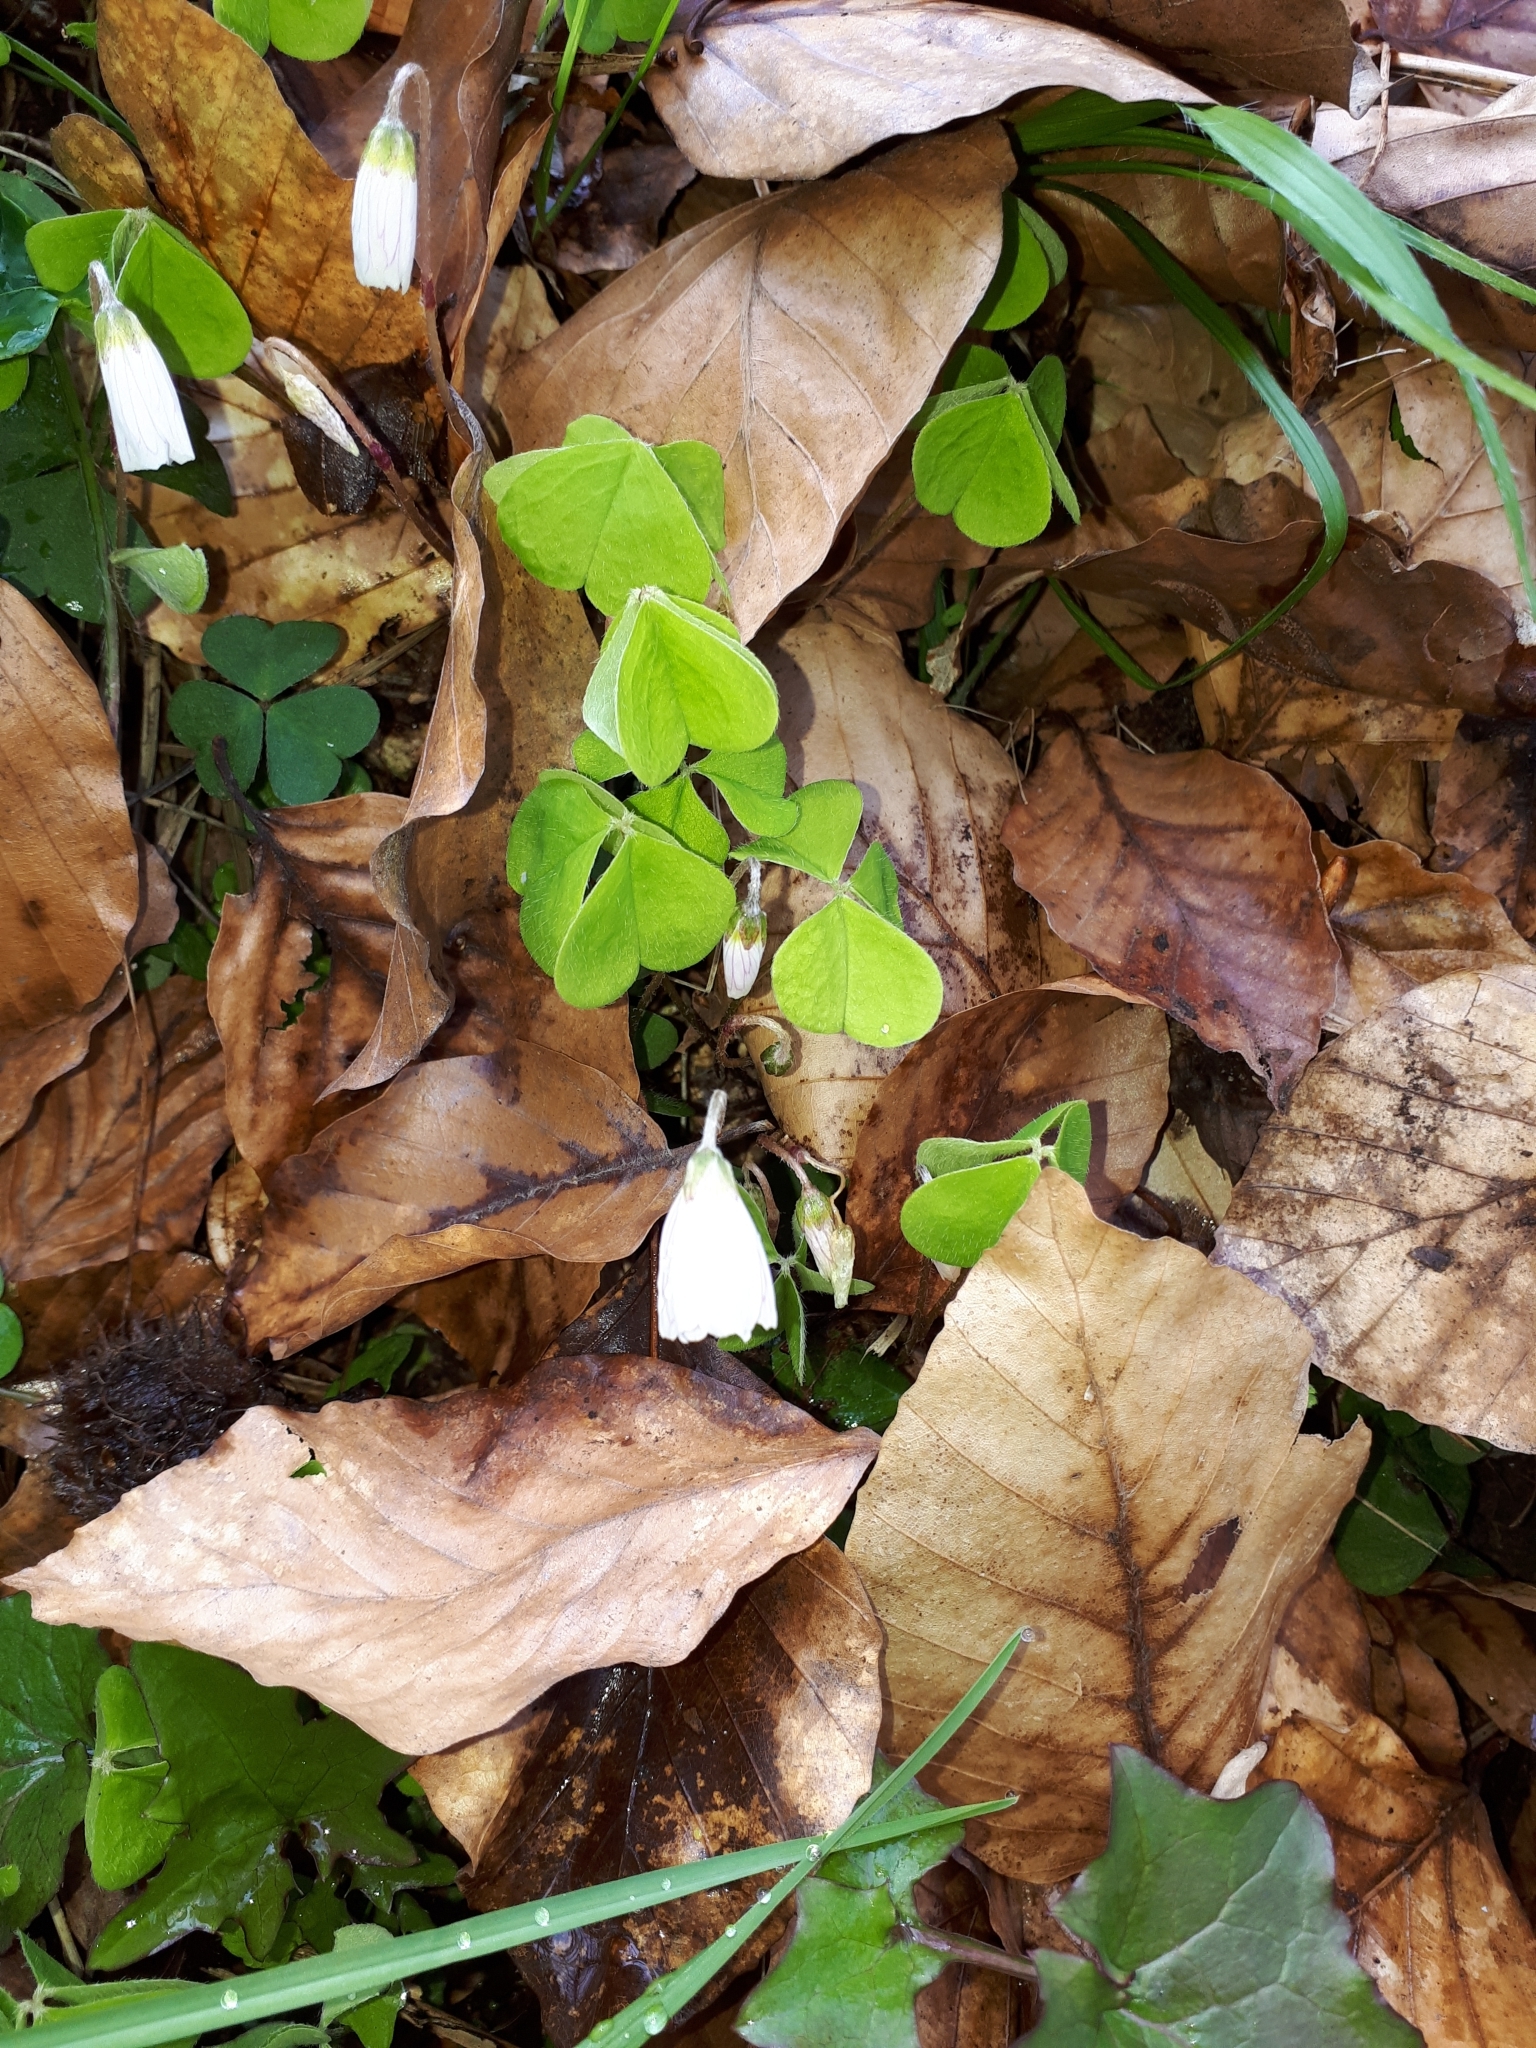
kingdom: Plantae
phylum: Tracheophyta
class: Magnoliopsida
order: Oxalidales
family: Oxalidaceae
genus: Oxalis
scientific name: Oxalis acetosella
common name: Wood-sorrel
